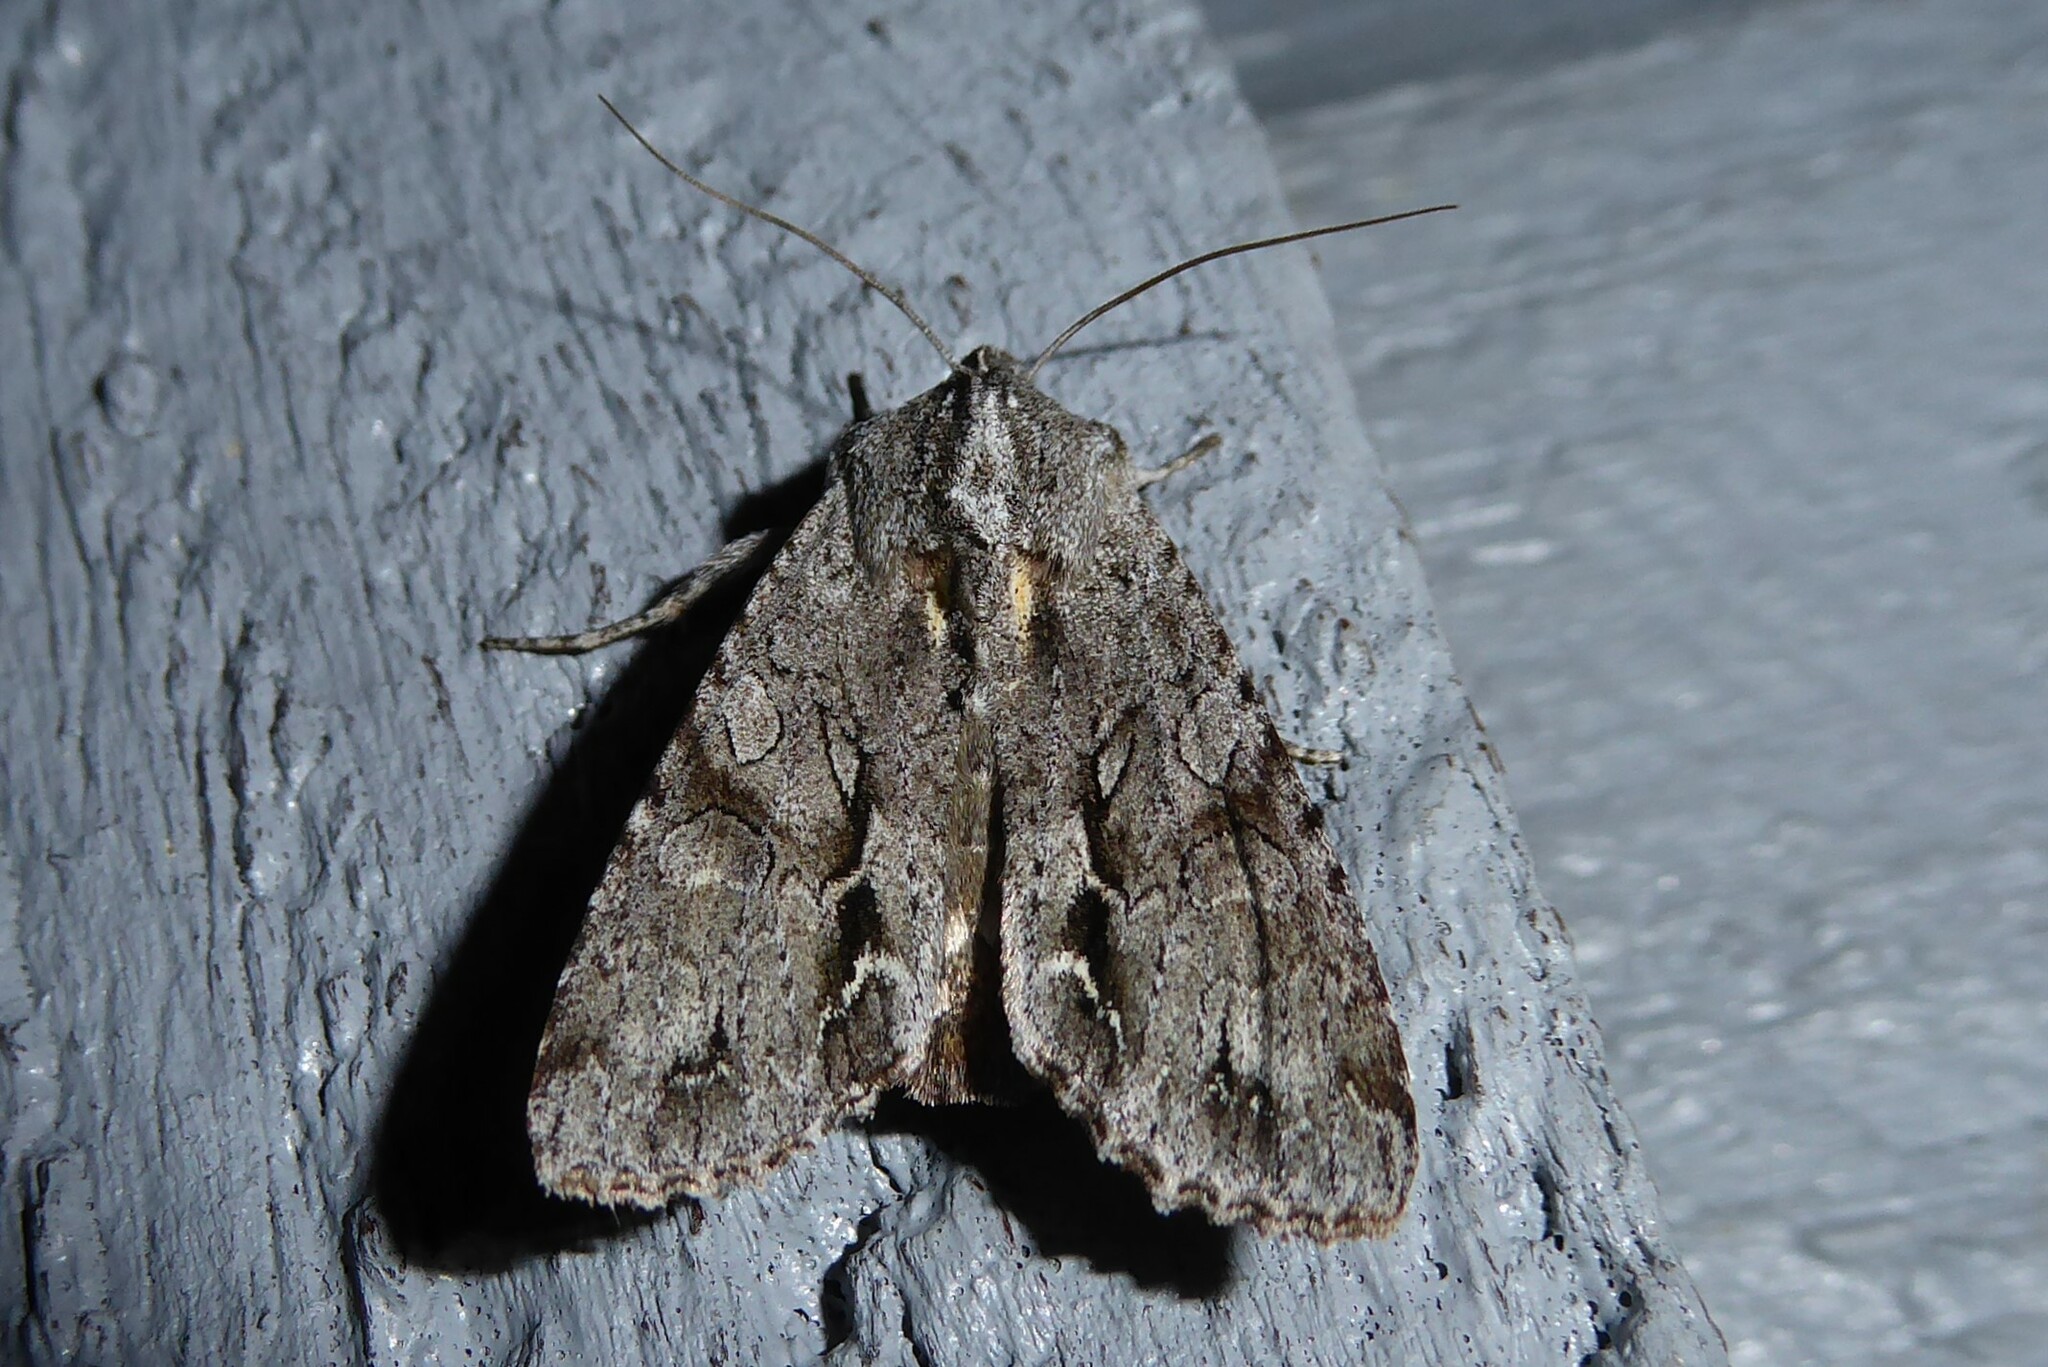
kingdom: Animalia
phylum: Arthropoda
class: Insecta
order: Lepidoptera
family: Noctuidae
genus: Ichneutica
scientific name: Ichneutica
